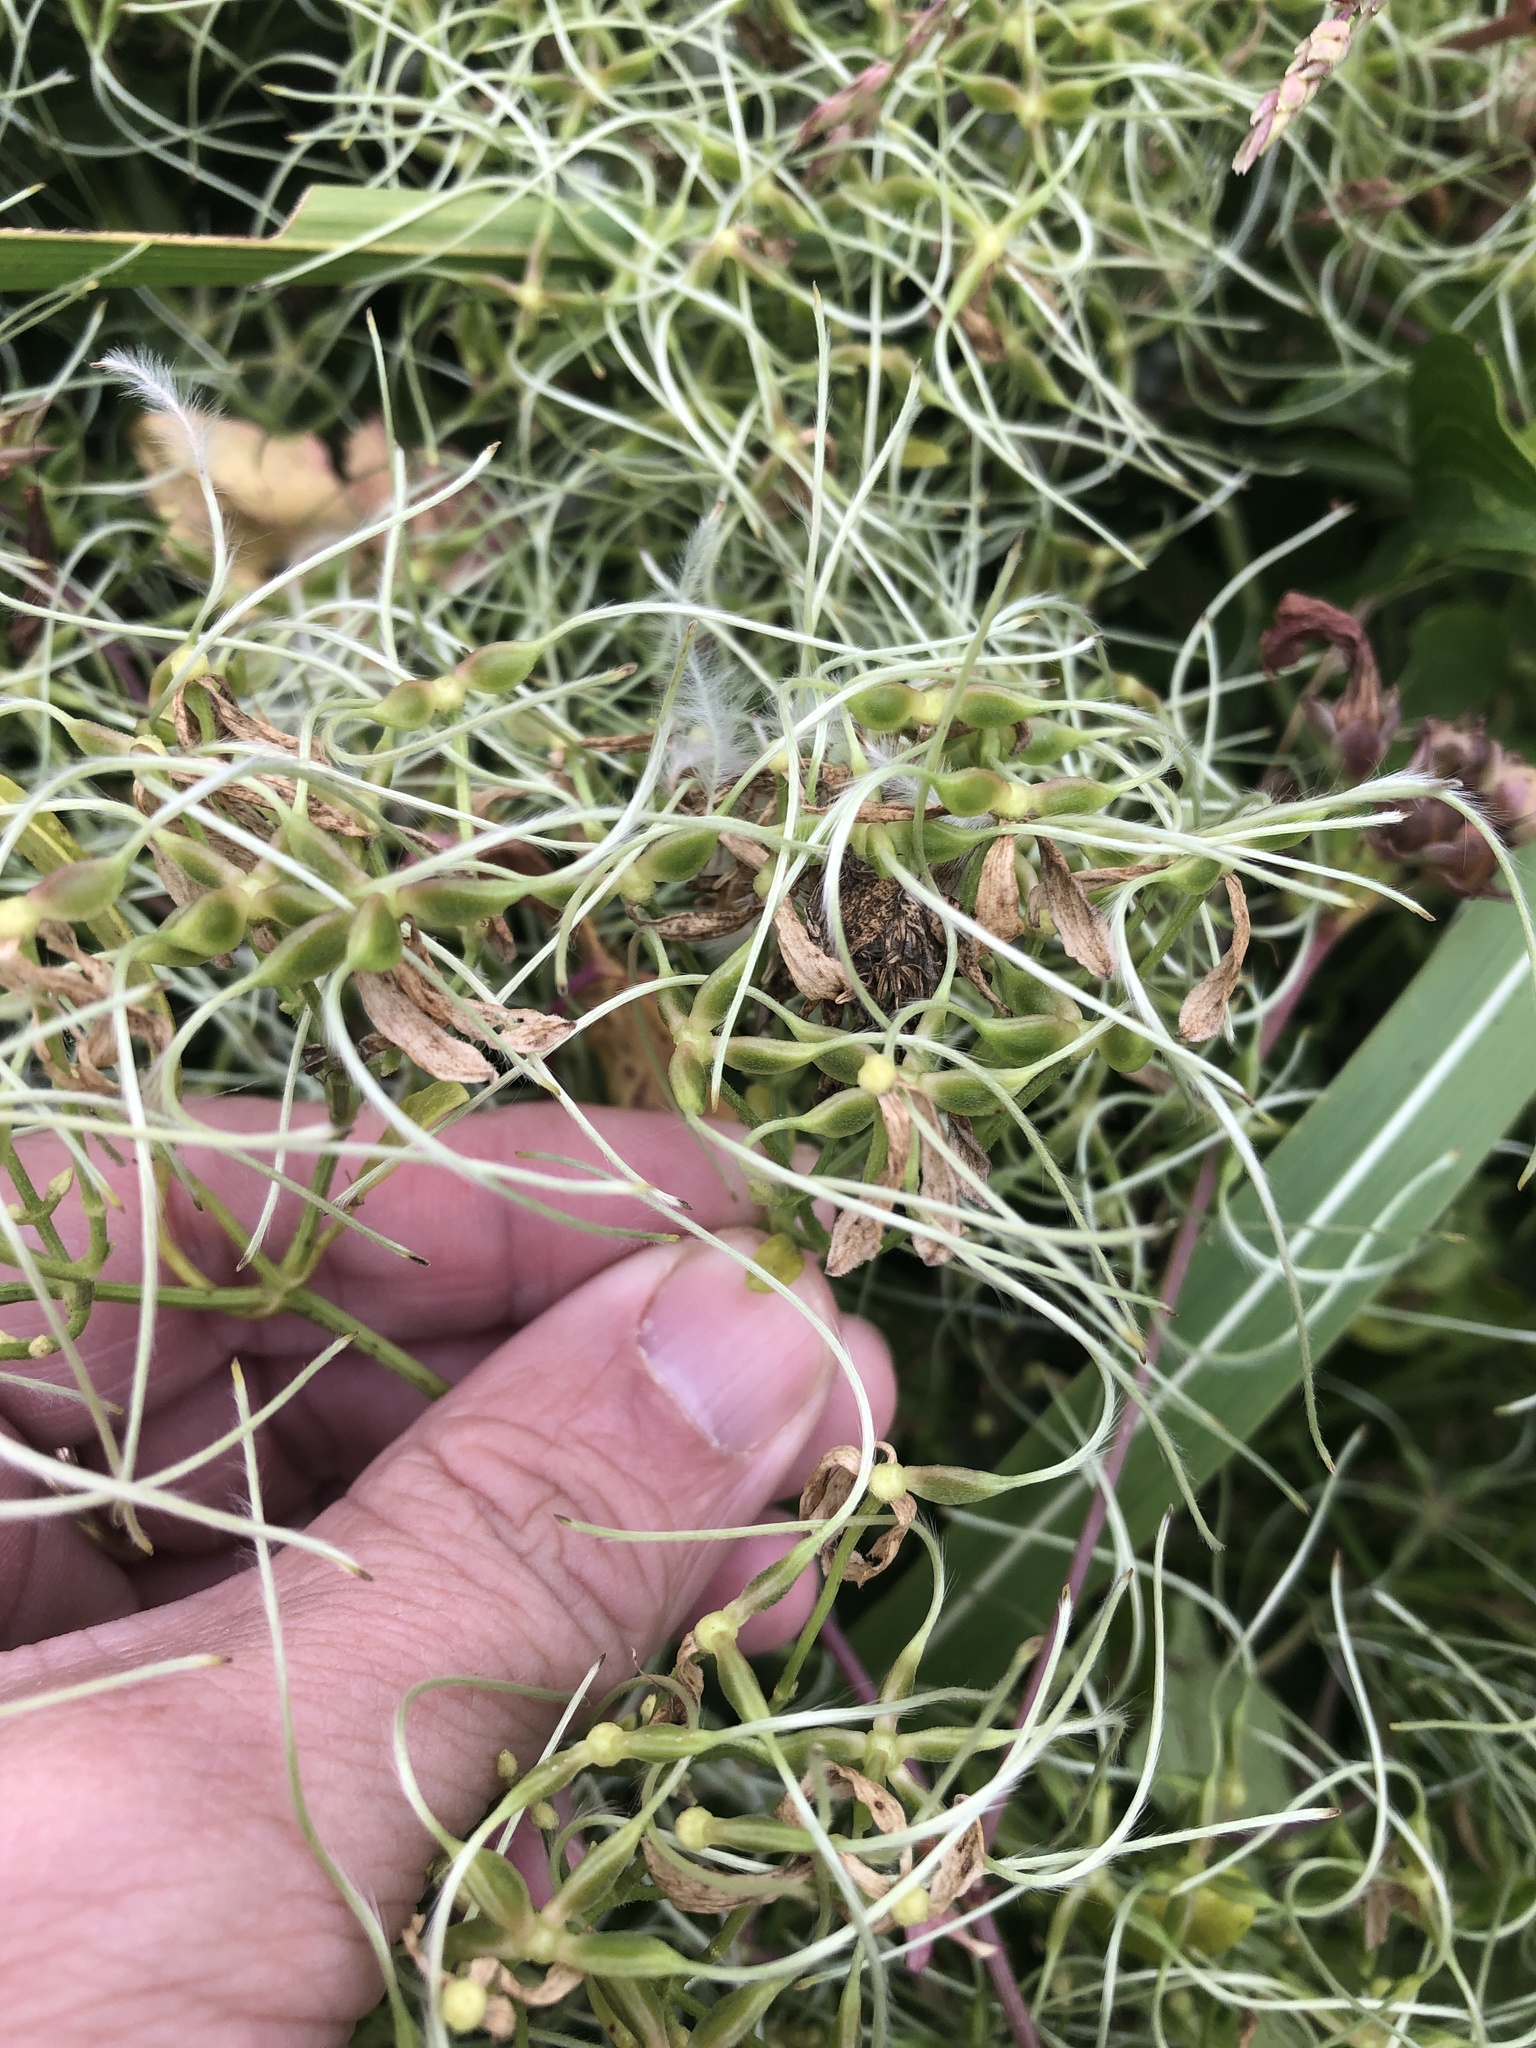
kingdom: Plantae
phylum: Tracheophyta
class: Magnoliopsida
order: Ranunculales
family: Ranunculaceae
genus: Clematis
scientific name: Clematis terniflora
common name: Sweet autumn clematis
